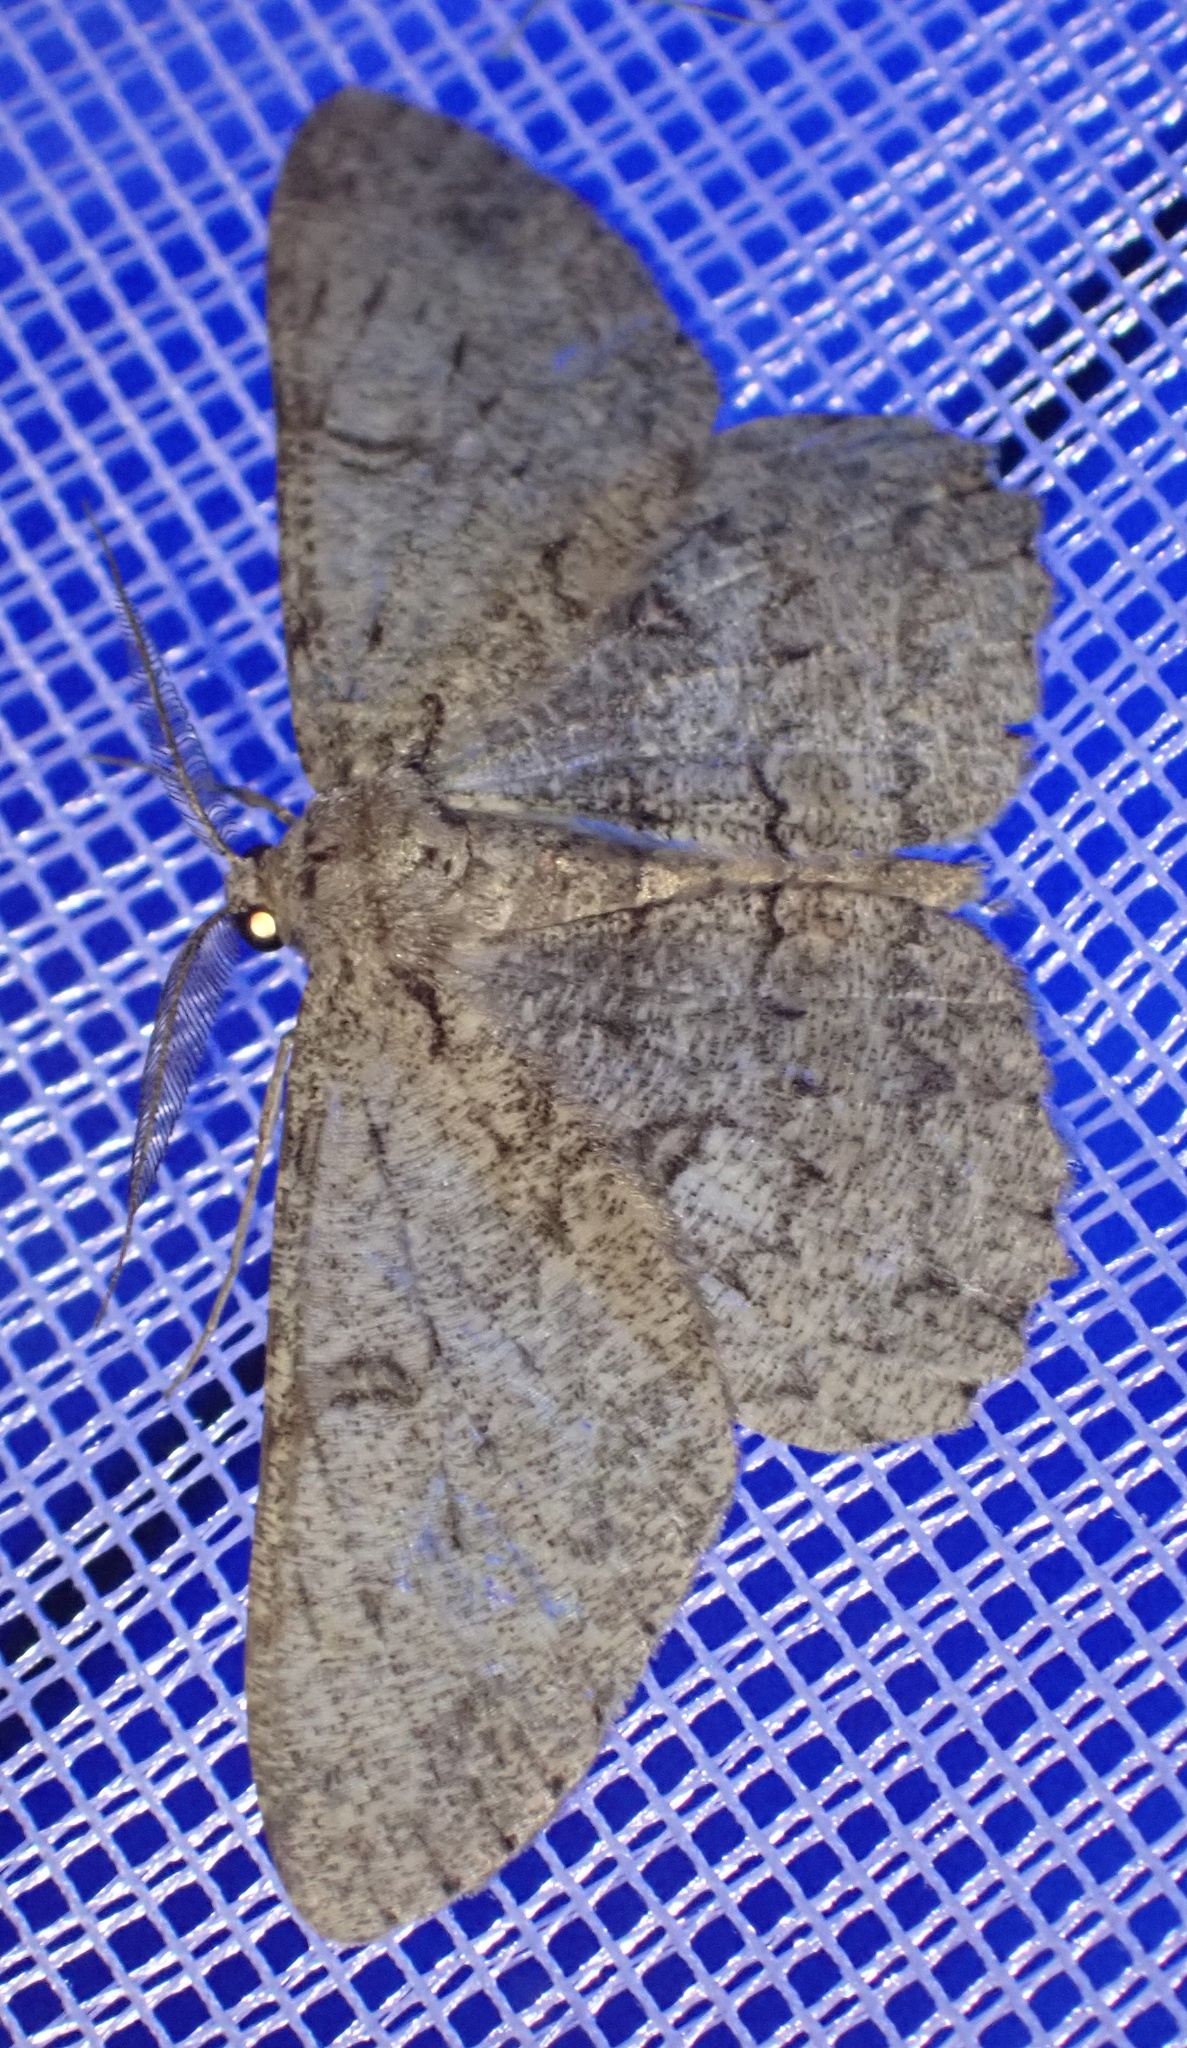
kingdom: Animalia
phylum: Arthropoda
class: Insecta
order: Lepidoptera
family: Geometridae
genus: Hypomecis
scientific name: Hypomecis punctinalis
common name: Pale oak beauty
